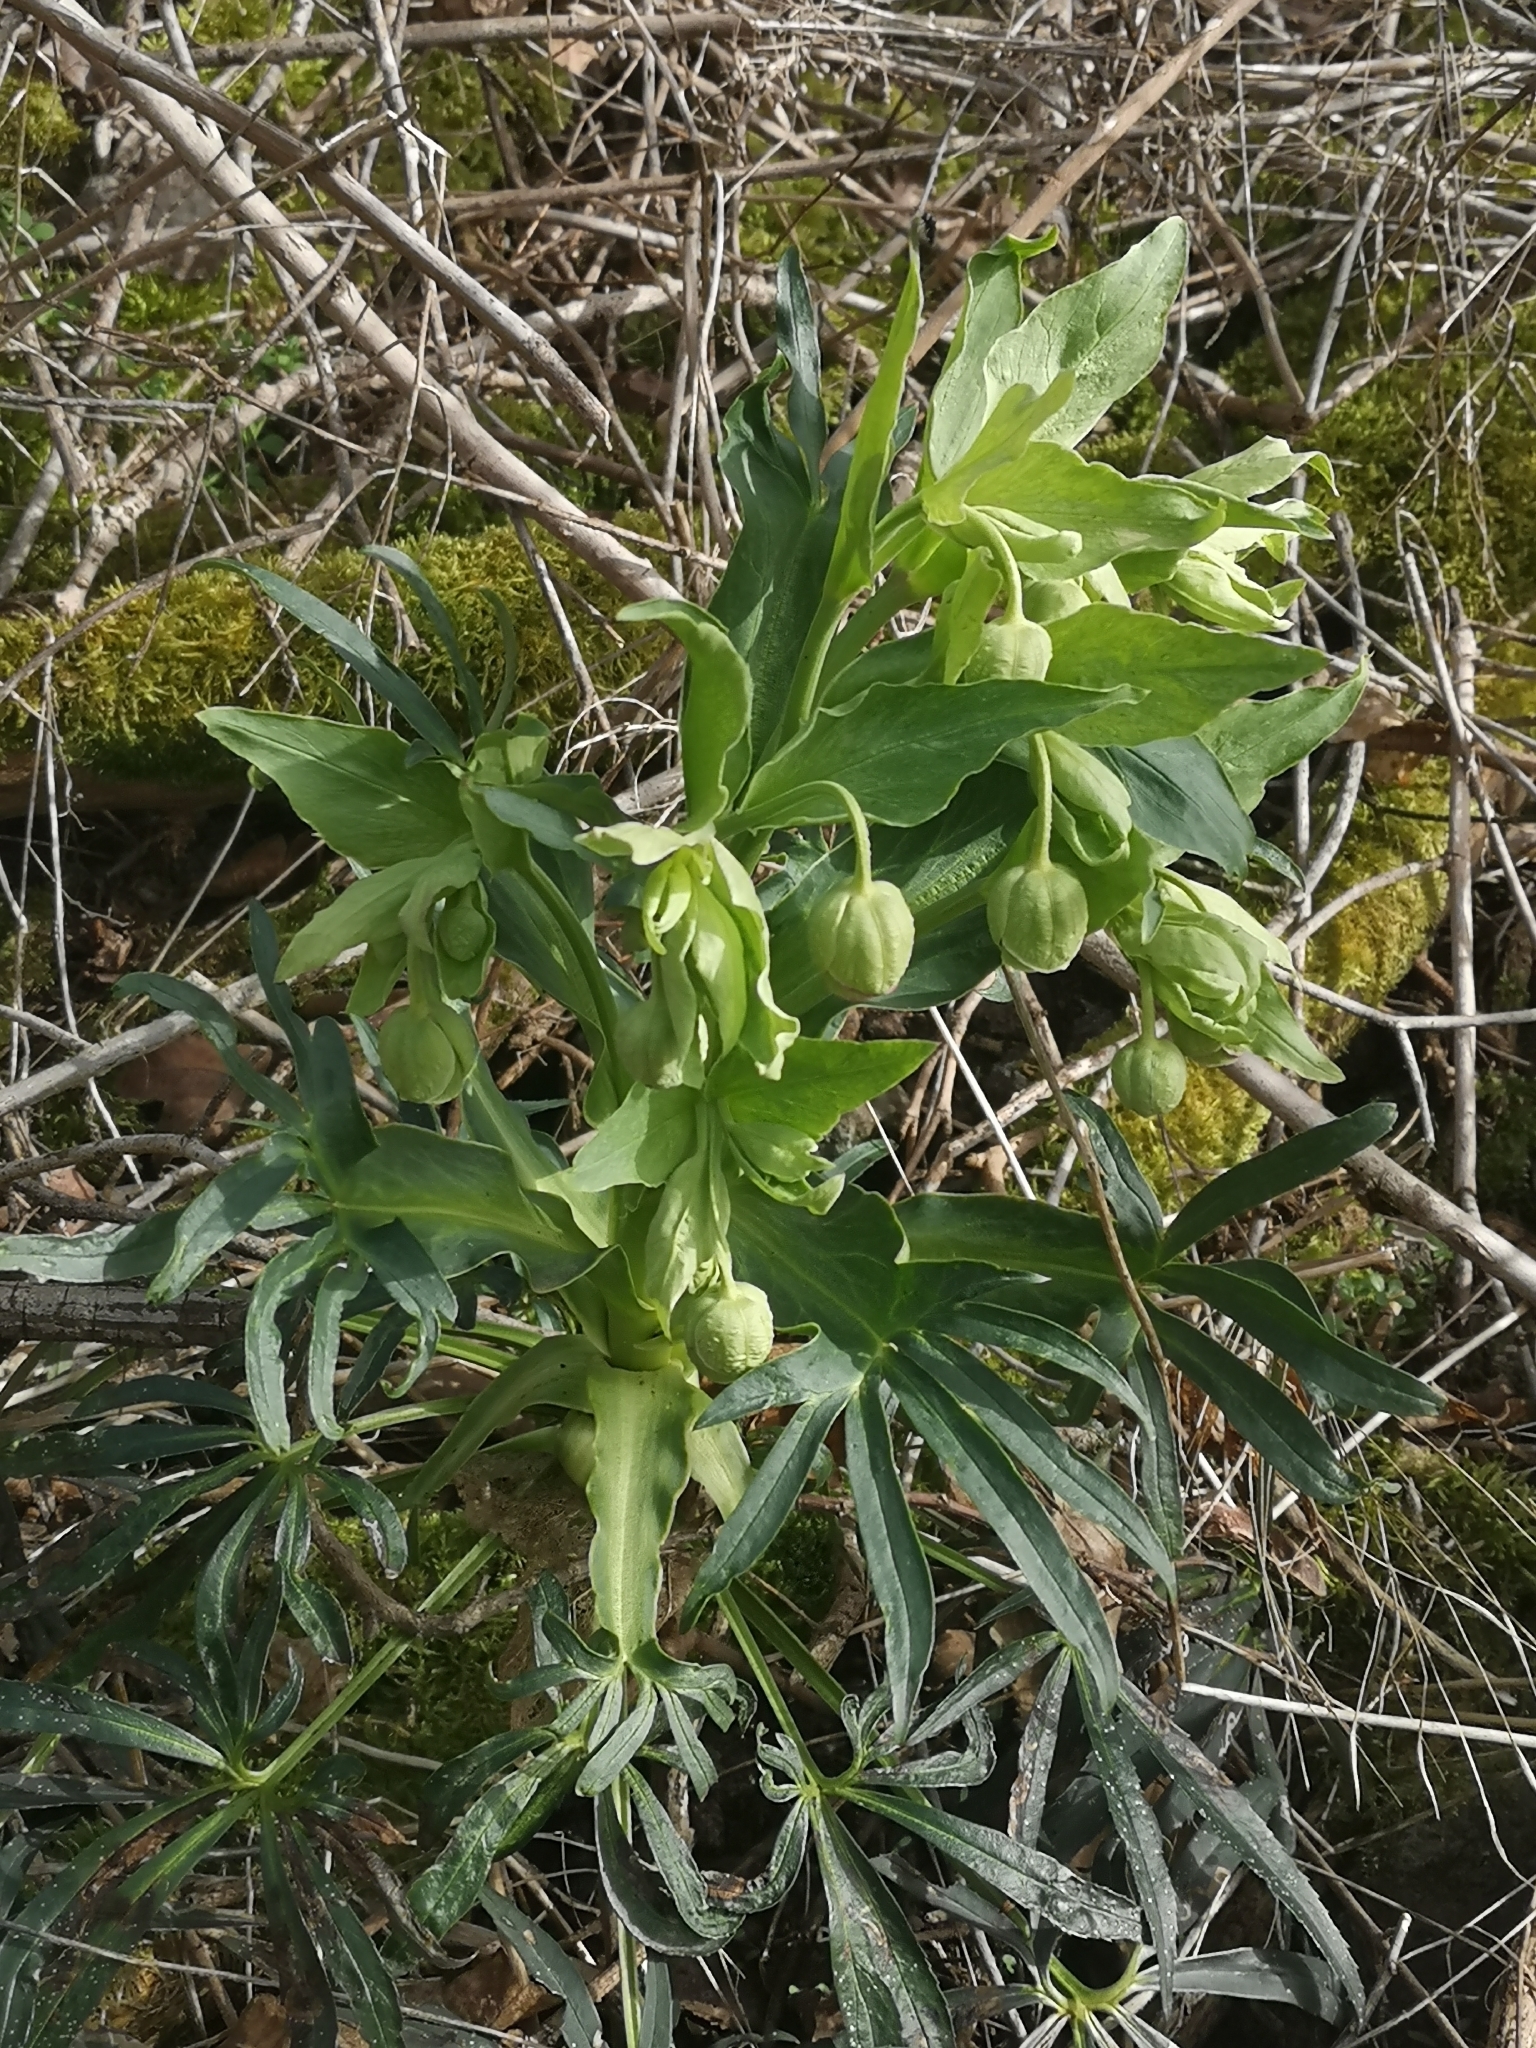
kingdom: Plantae
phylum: Tracheophyta
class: Magnoliopsida
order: Ranunculales
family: Ranunculaceae
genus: Helleborus
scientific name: Helleborus foetidus
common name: Stinking hellebore
